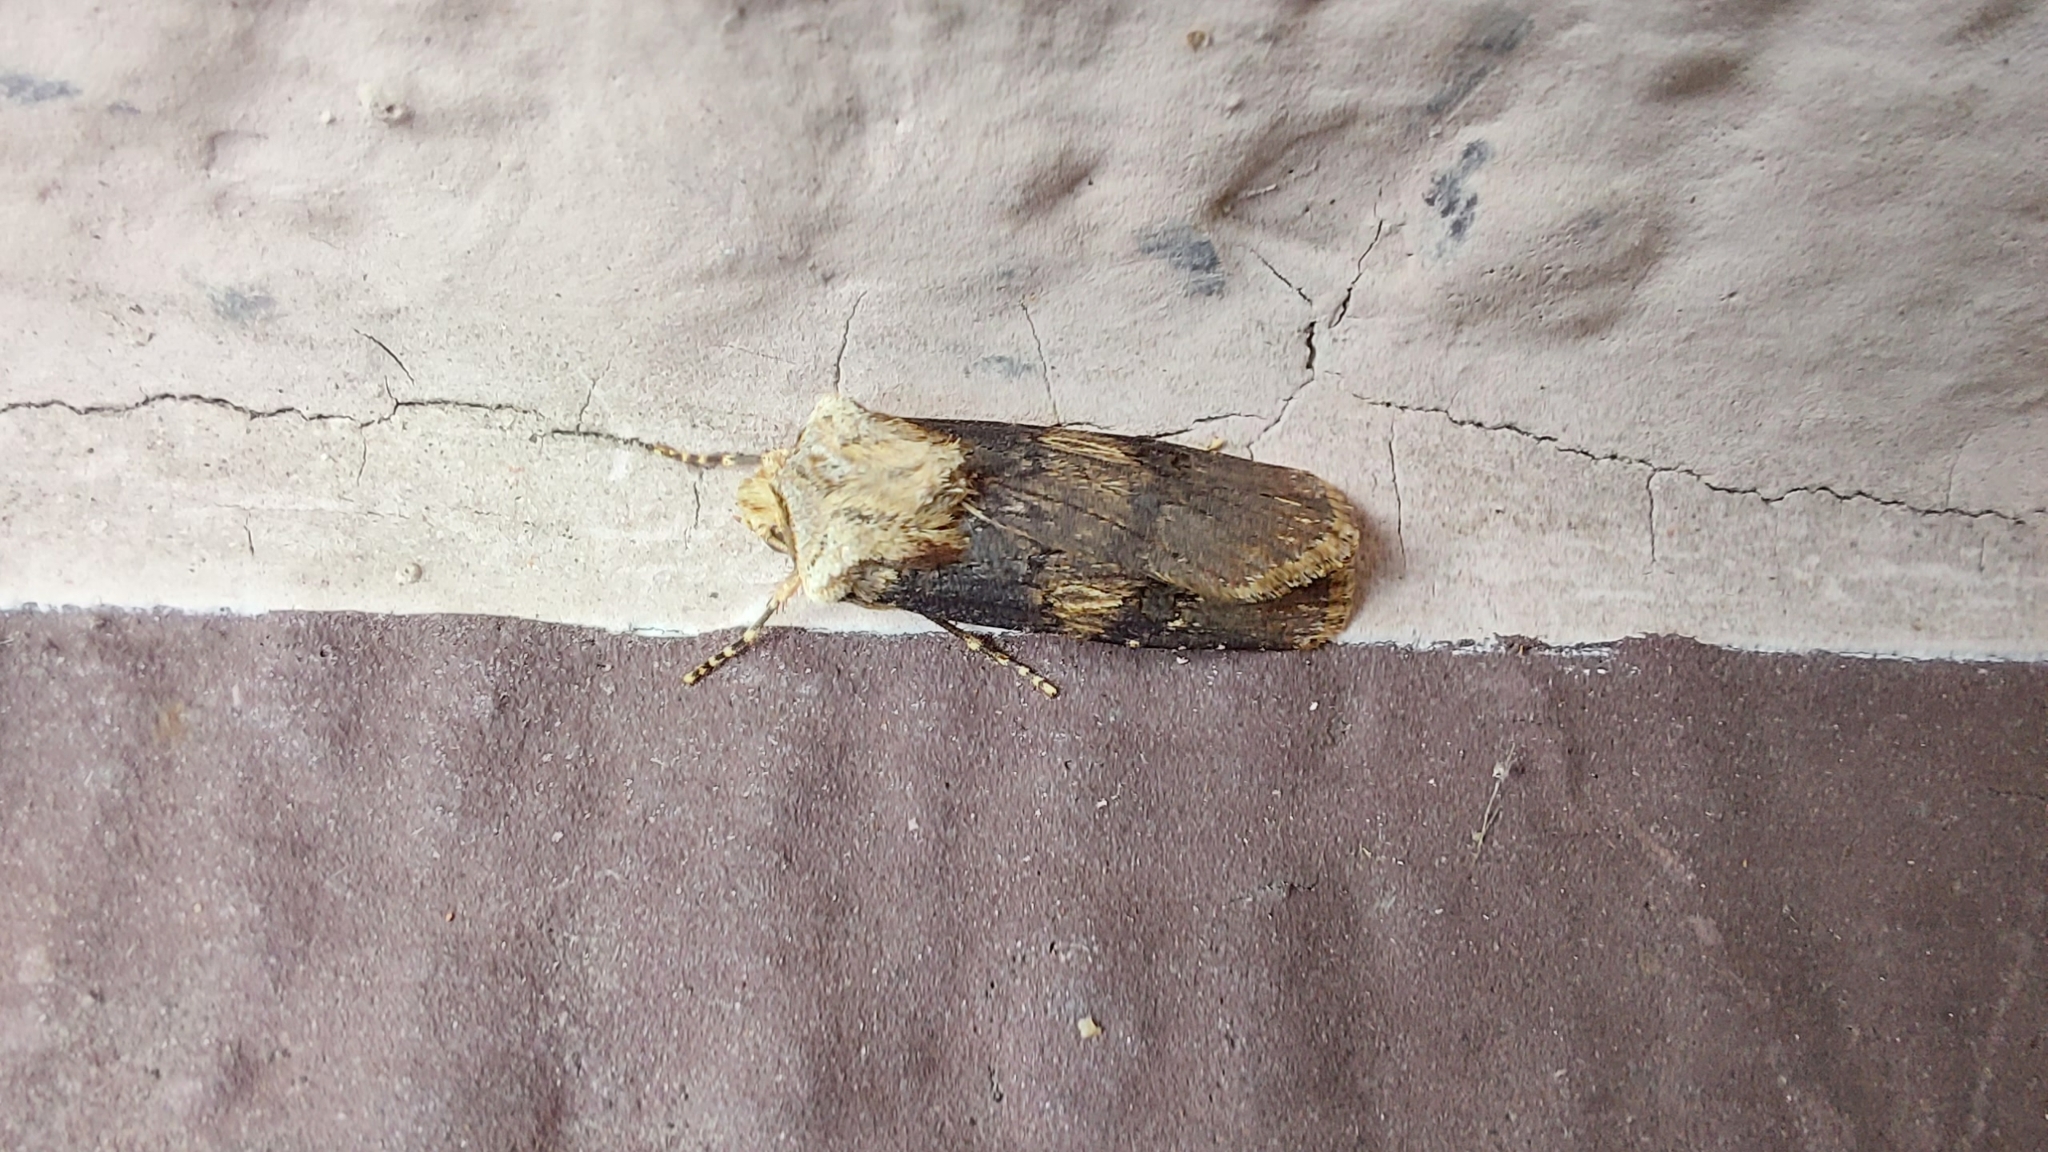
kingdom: Animalia
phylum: Arthropoda
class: Insecta
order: Lepidoptera
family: Noctuidae
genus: Agrotis
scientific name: Agrotis puta
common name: Shuttle-shaped dart
